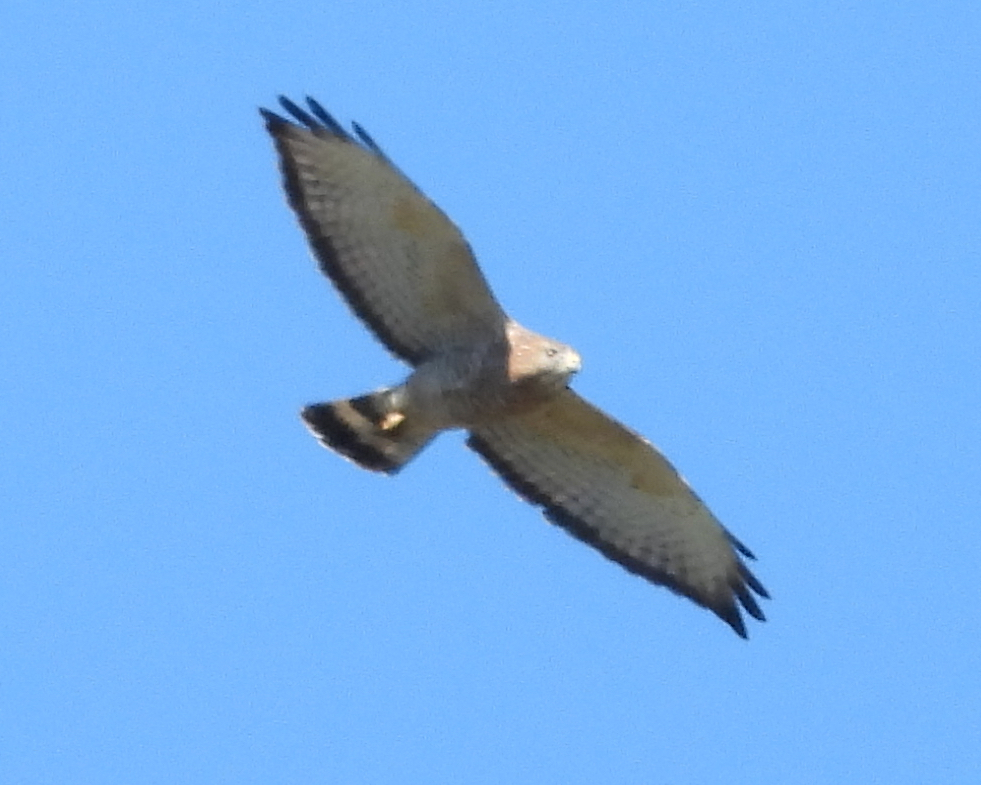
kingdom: Animalia
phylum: Chordata
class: Aves
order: Accipitriformes
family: Accipitridae
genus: Buteo
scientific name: Buteo platypterus
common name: Broad-winged hawk
